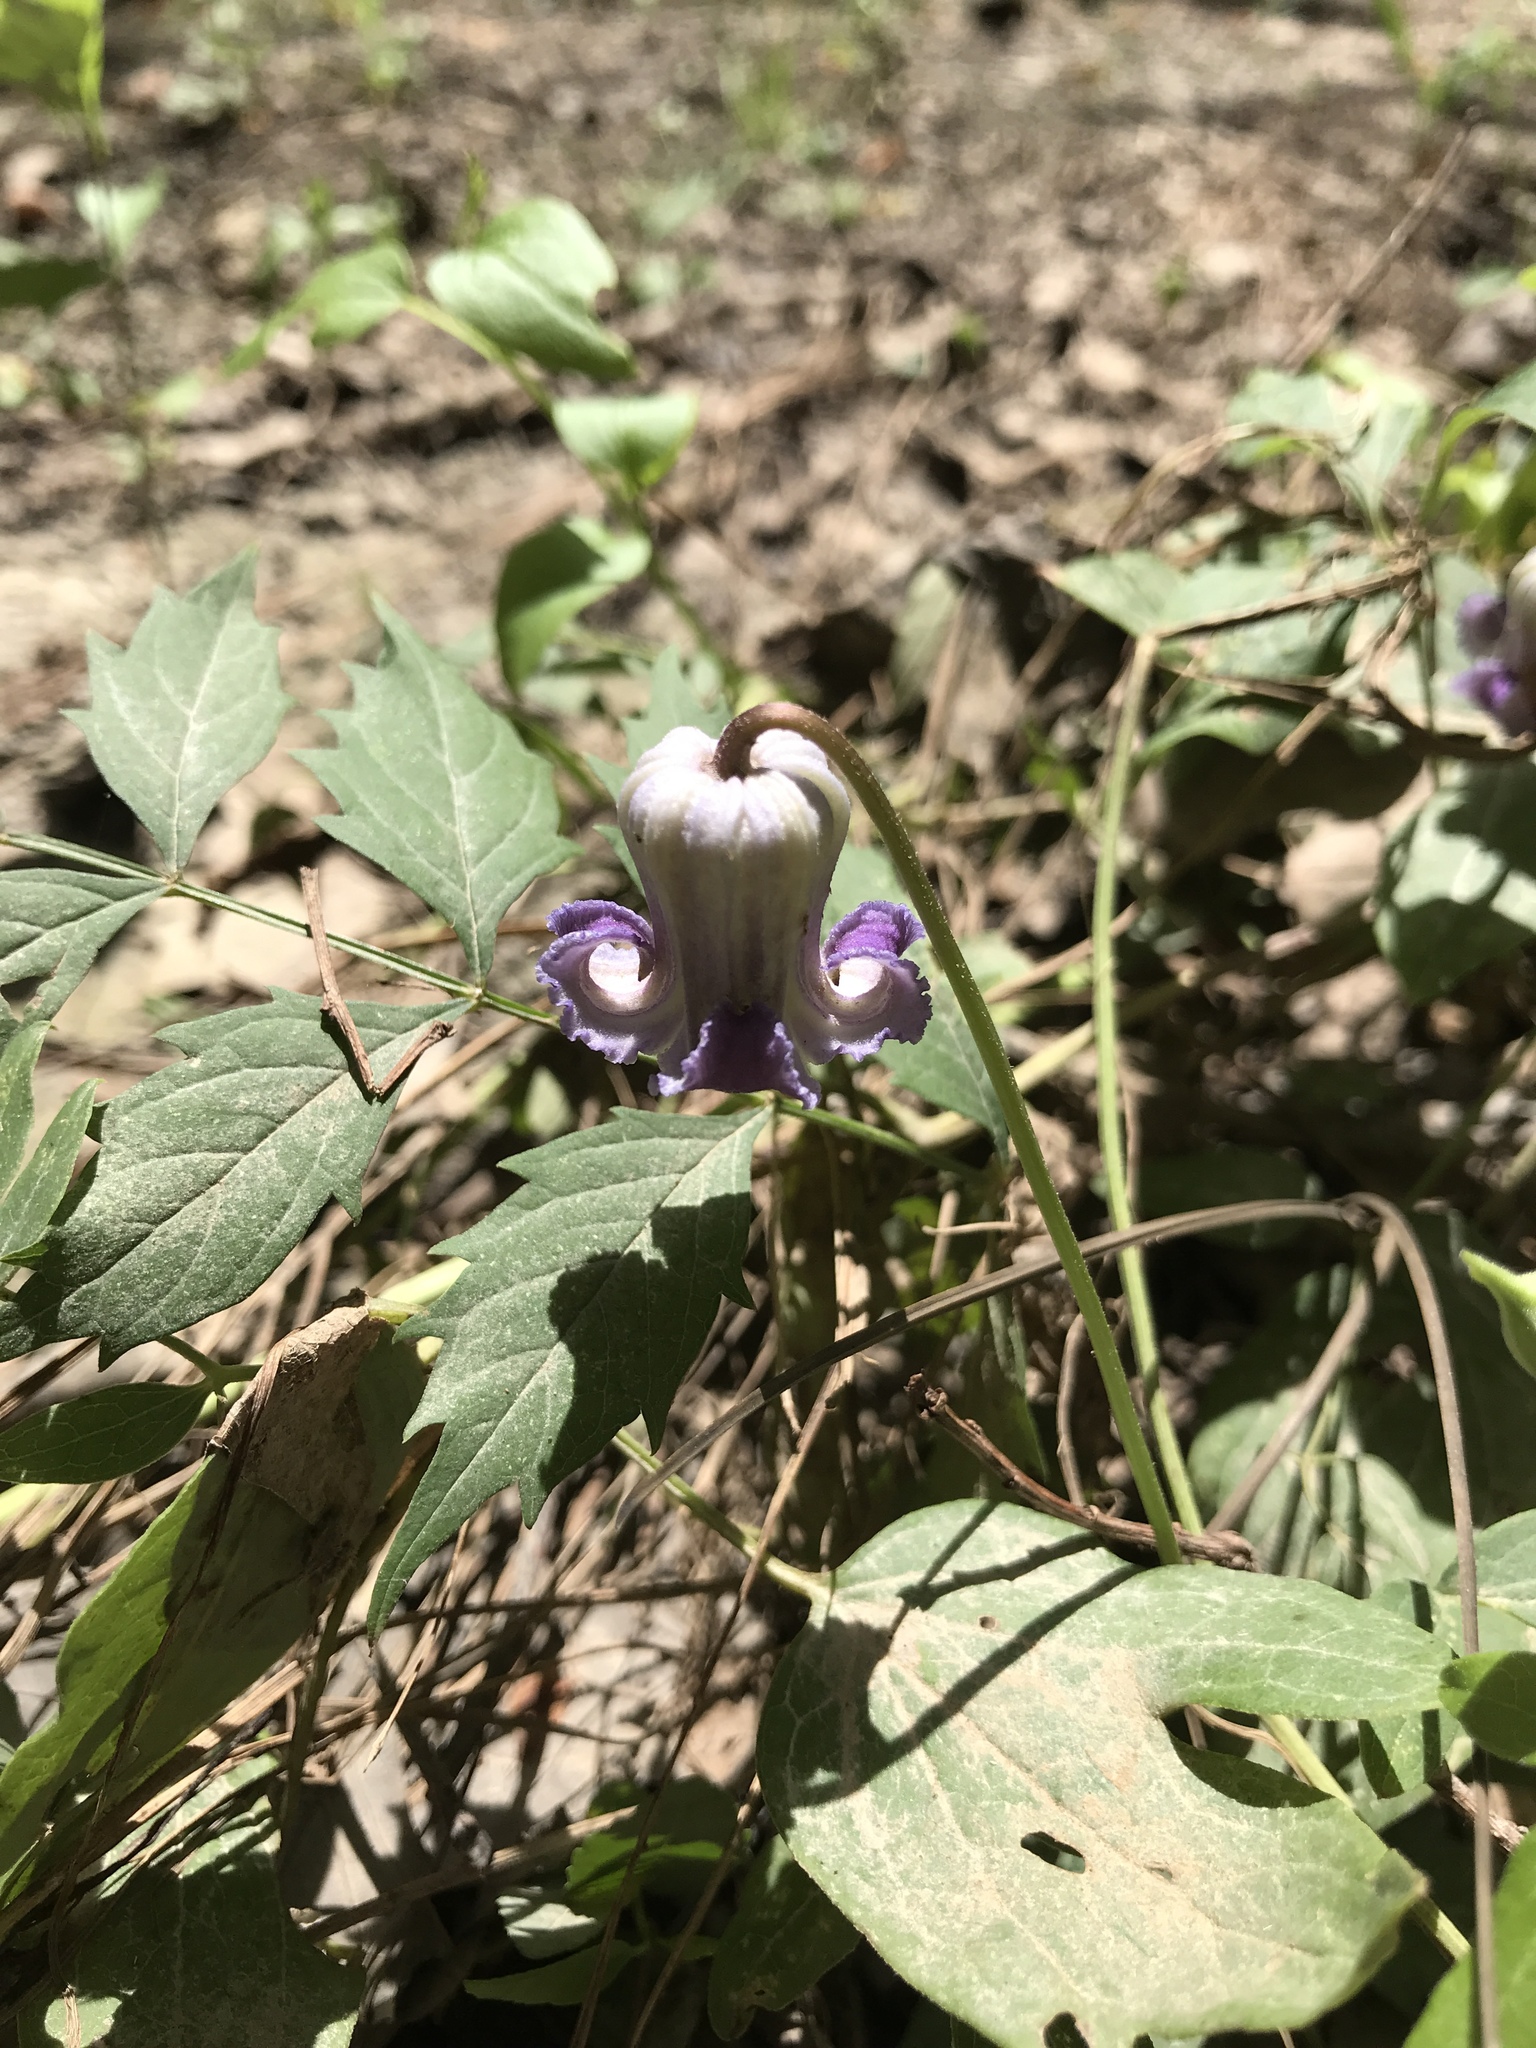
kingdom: Plantae
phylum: Tracheophyta
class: Magnoliopsida
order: Ranunculales
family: Ranunculaceae
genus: Clematis
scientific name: Clematis crispa
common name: Curly clematis
